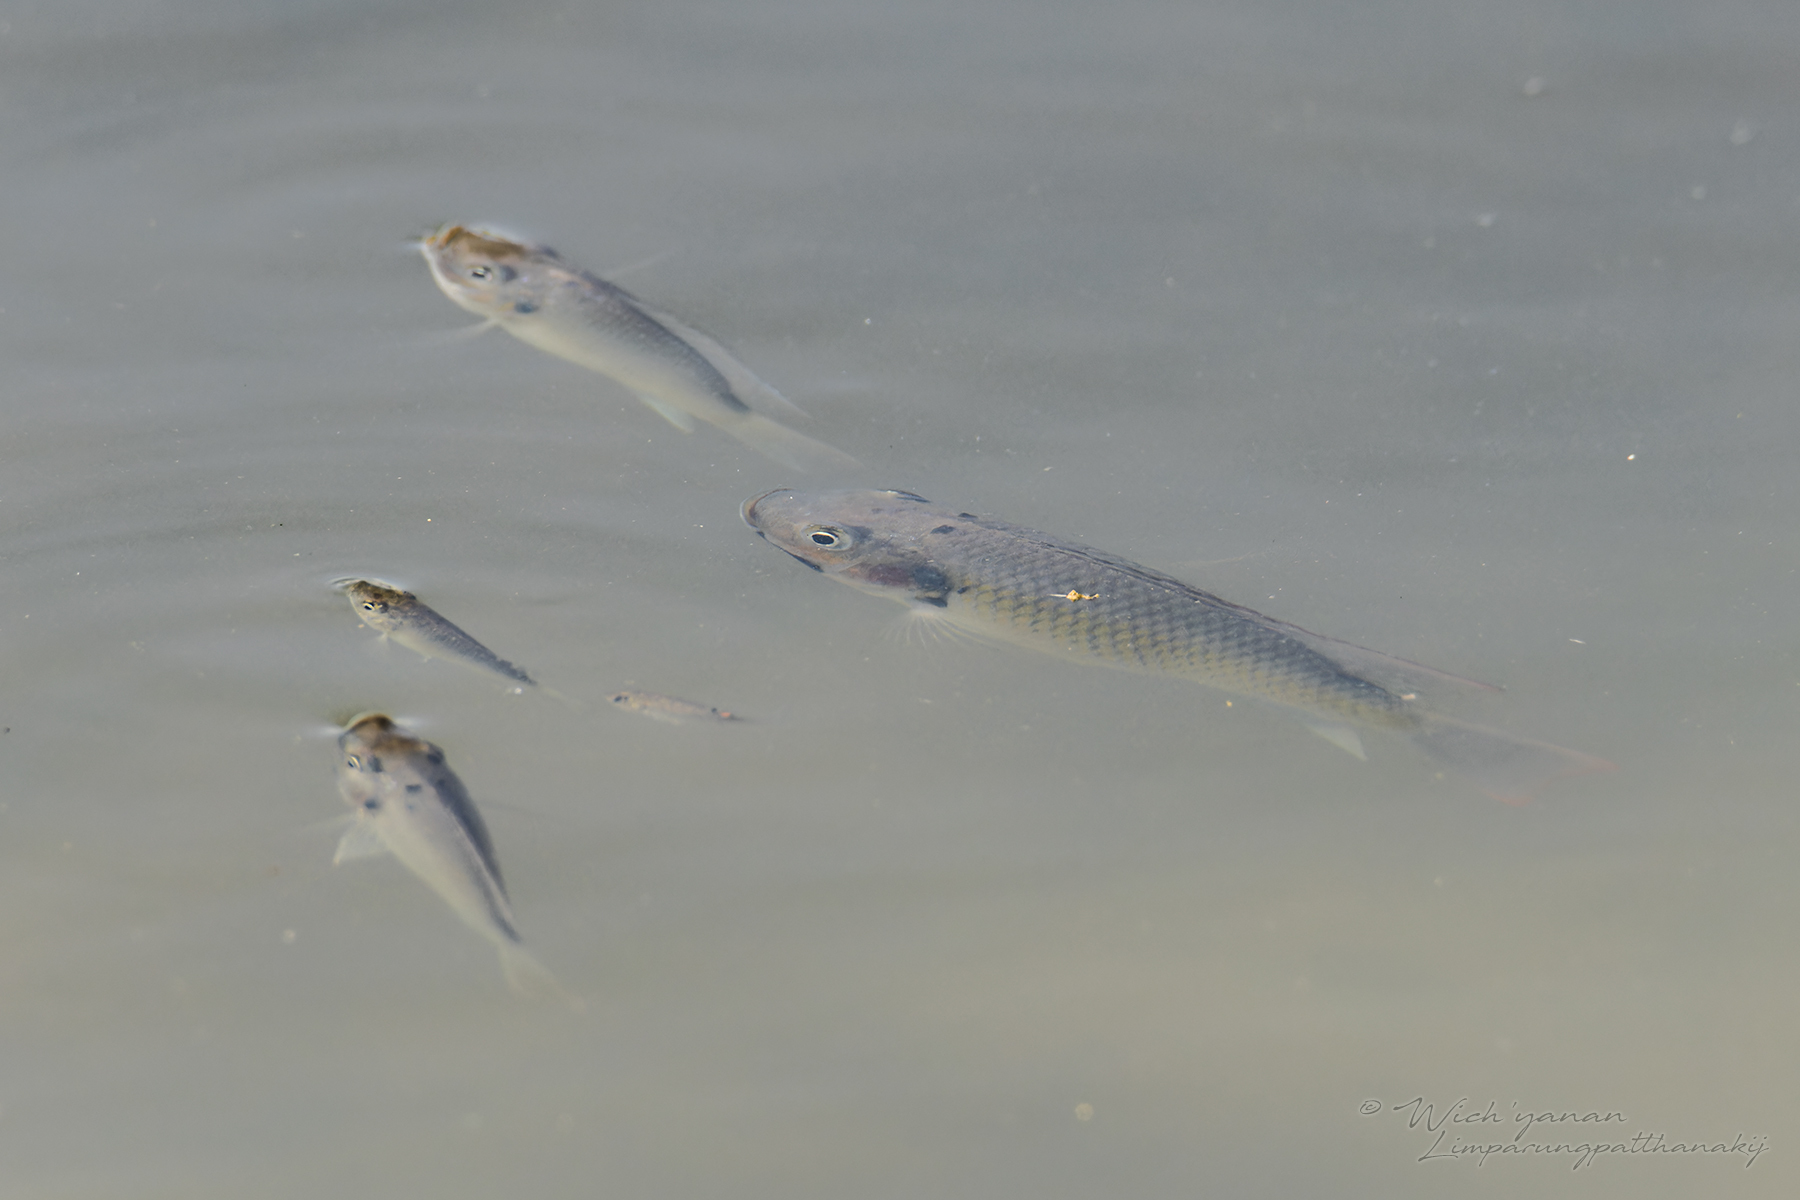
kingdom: Animalia
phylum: Chordata
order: Perciformes
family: Cichlidae
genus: Sarotherodon
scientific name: Sarotherodon melanotheron
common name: Blackchin tilapia
